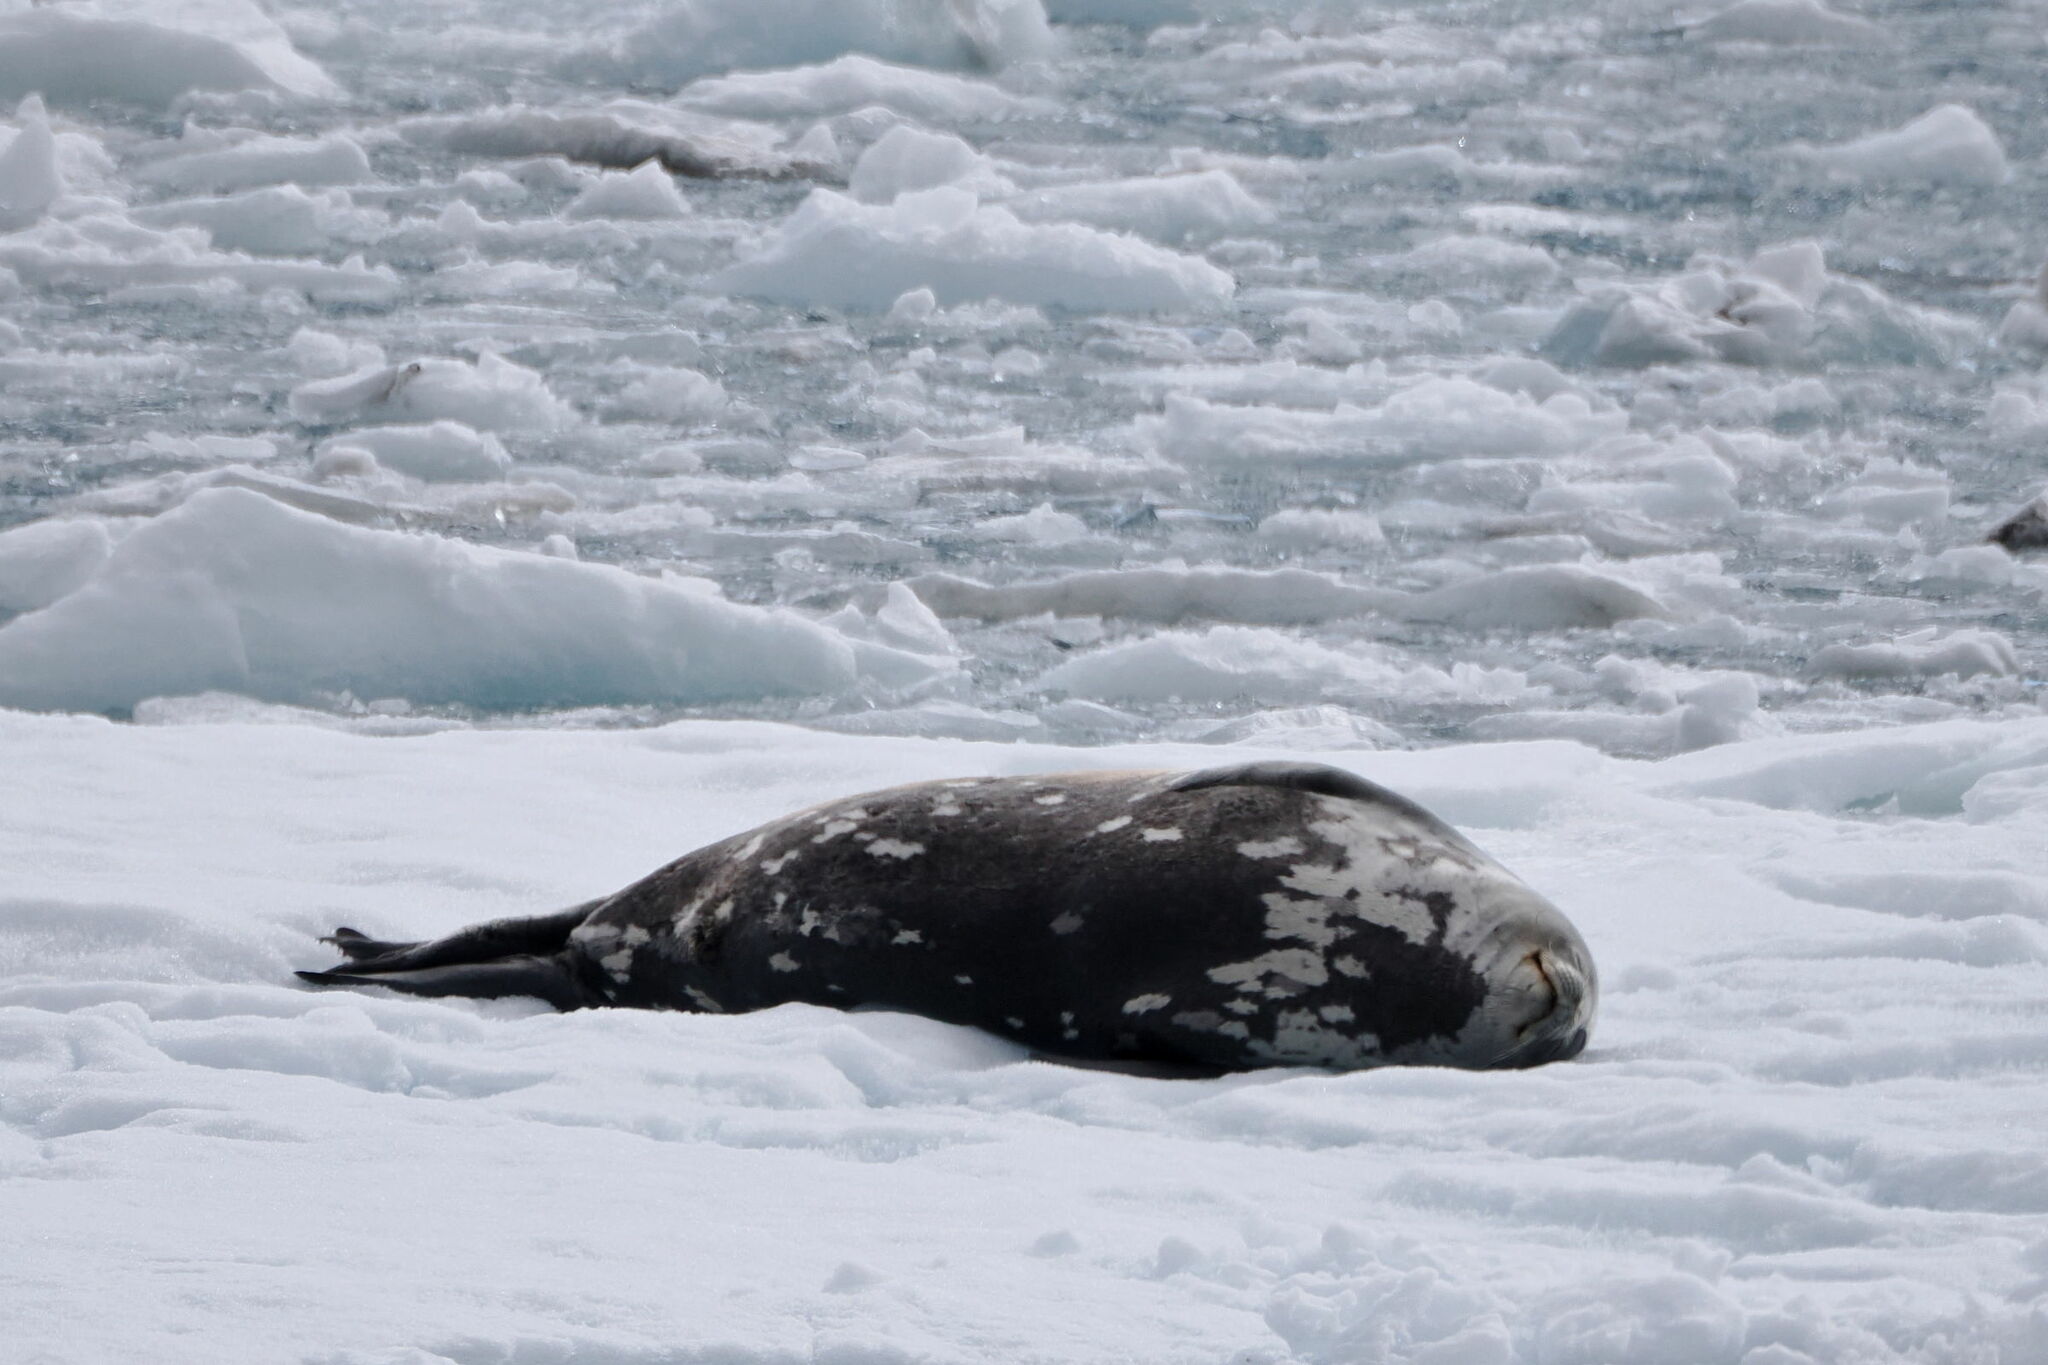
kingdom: Animalia
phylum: Chordata
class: Mammalia
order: Carnivora
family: Phocidae
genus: Leptonychotes
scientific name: Leptonychotes weddellii
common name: Weddell seal
